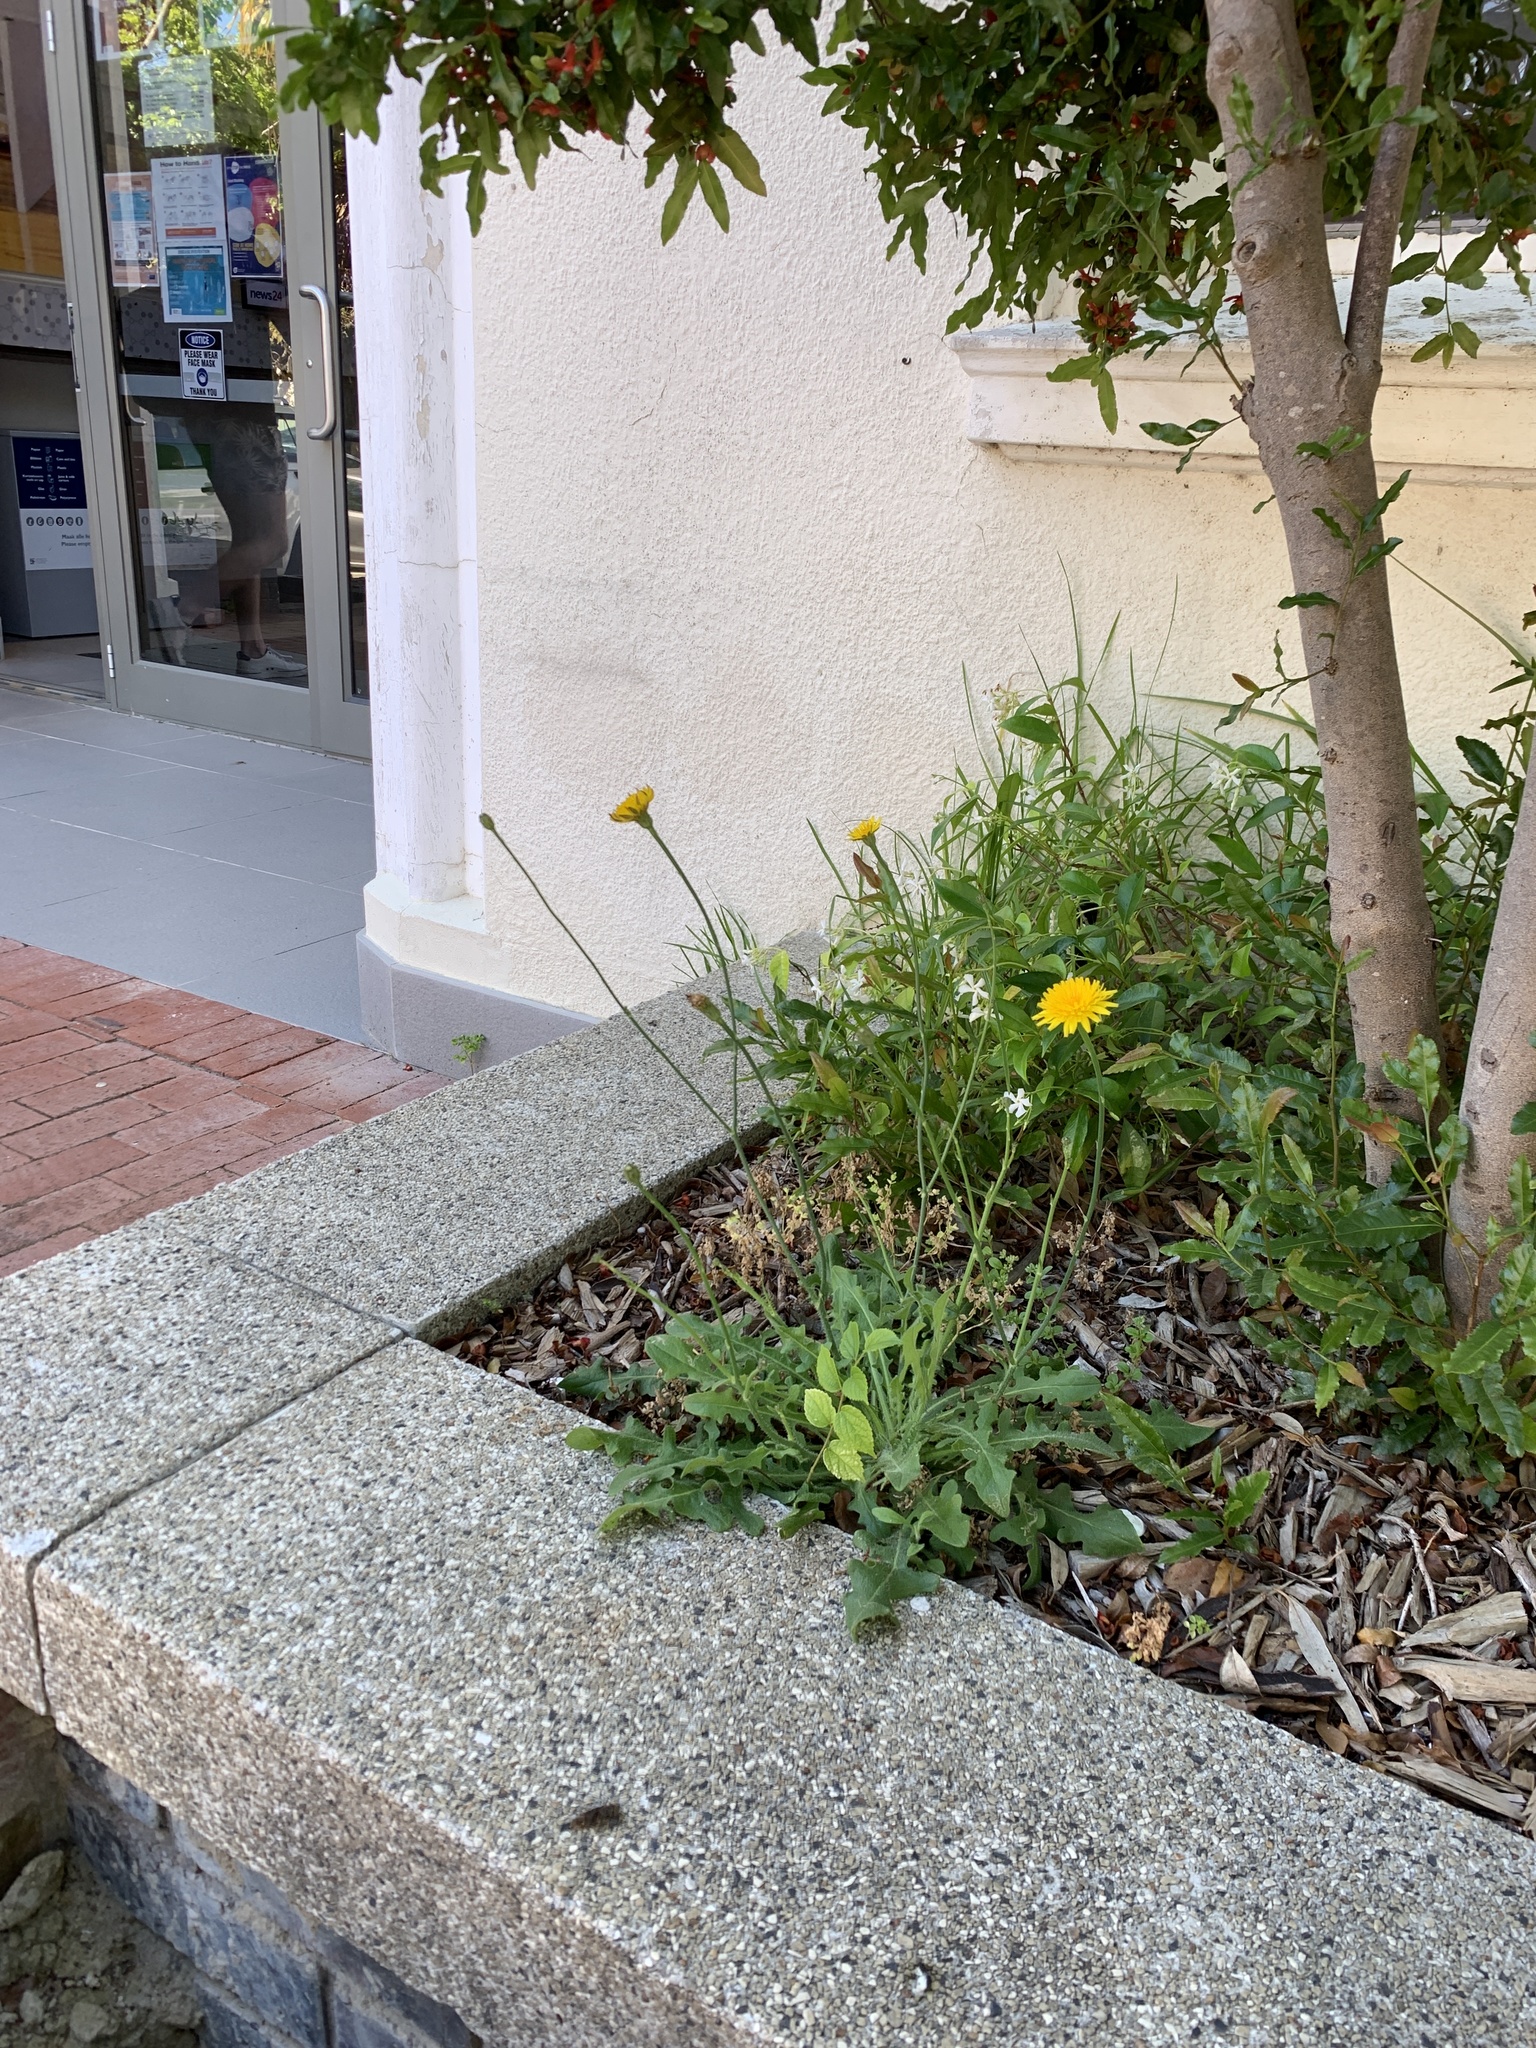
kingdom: Plantae
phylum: Tracheophyta
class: Magnoliopsida
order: Asterales
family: Asteraceae
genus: Hypochaeris
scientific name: Hypochaeris radicata
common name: Flatweed
